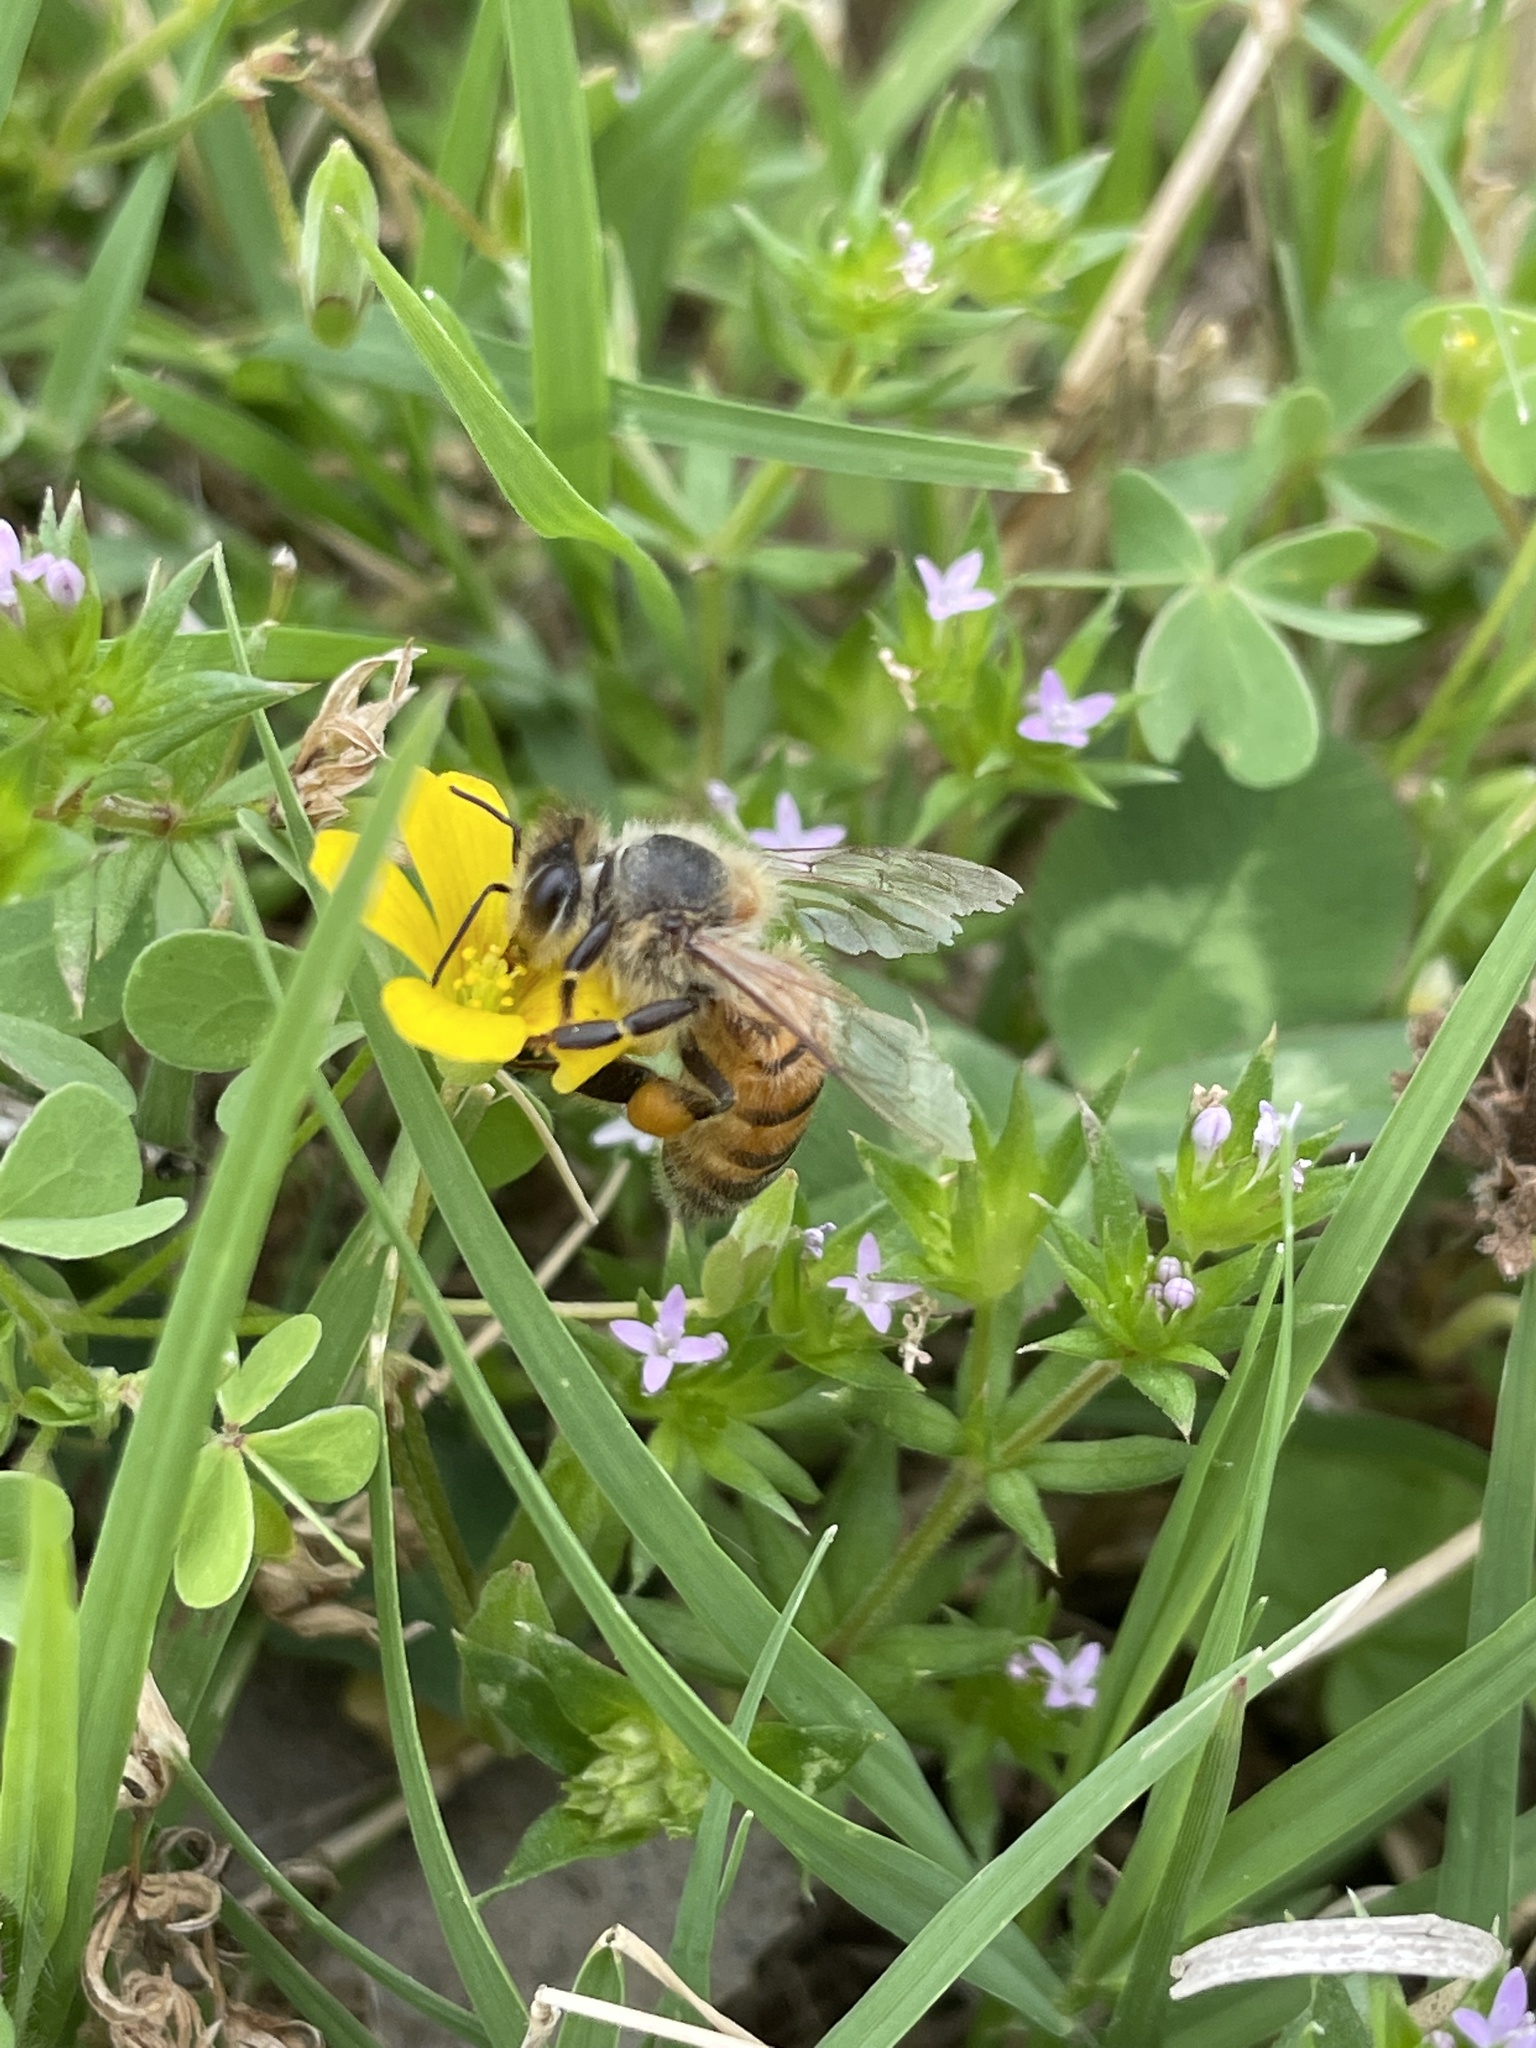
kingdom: Animalia
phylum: Arthropoda
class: Insecta
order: Hymenoptera
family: Apidae
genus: Apis
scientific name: Apis mellifera
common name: Honey bee
